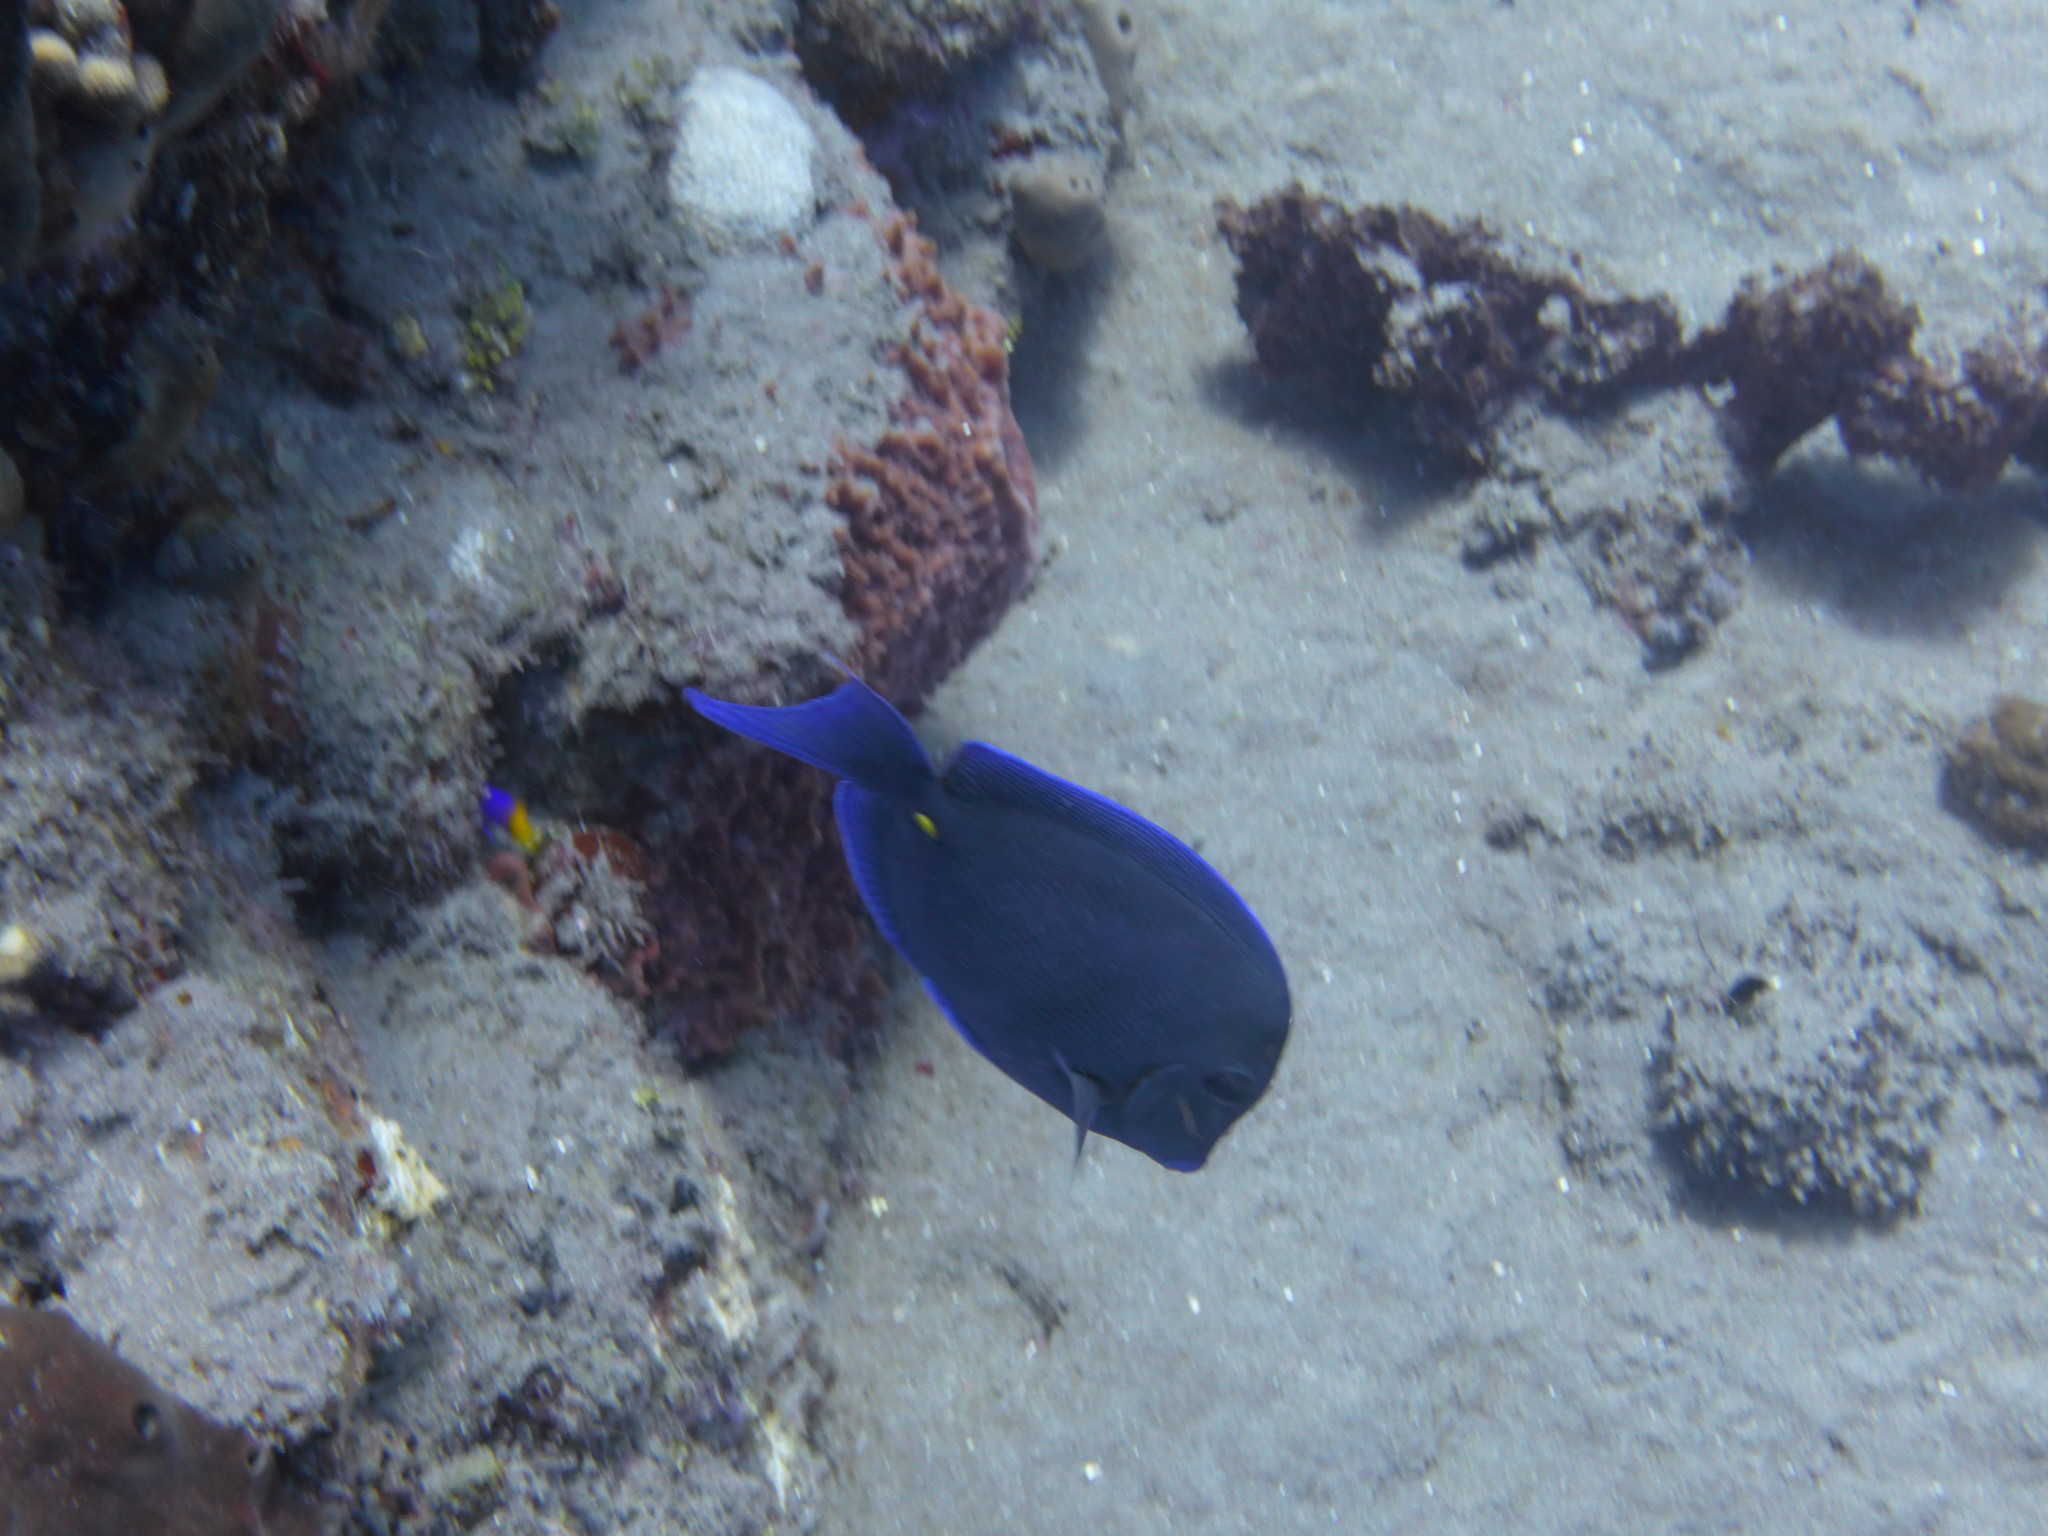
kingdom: Animalia
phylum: Chordata
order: Perciformes
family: Acanthuridae
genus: Acanthurus
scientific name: Acanthurus coeruleus
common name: Blue tang
